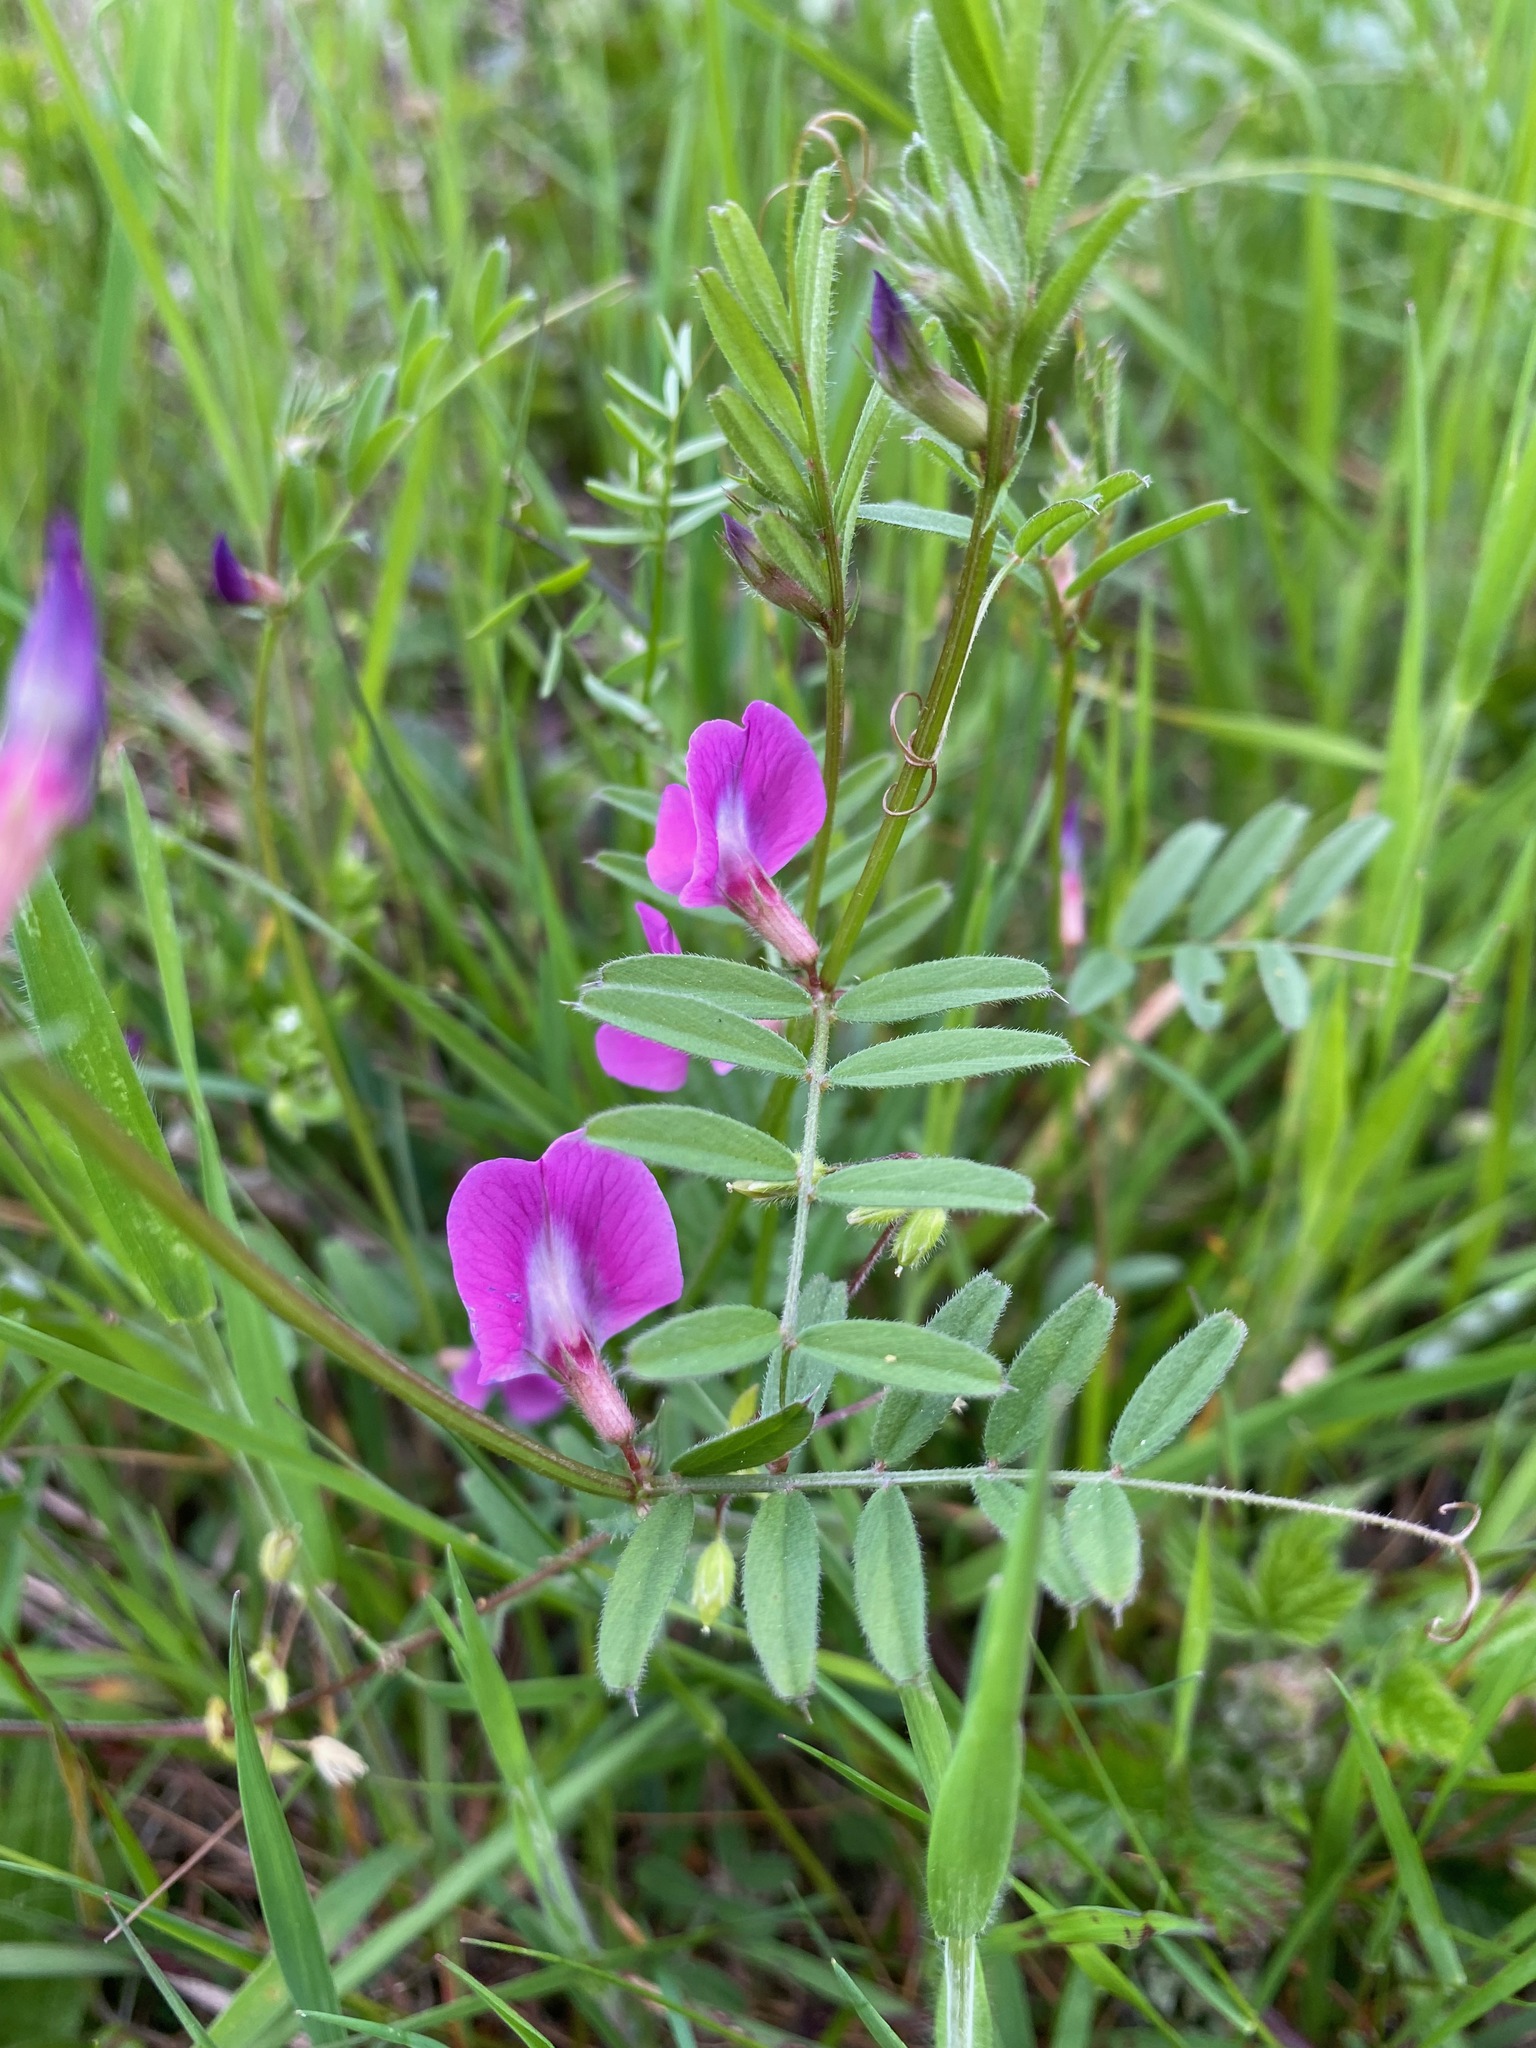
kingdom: Plantae
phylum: Tracheophyta
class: Magnoliopsida
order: Fabales
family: Fabaceae
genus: Vicia
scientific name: Vicia sativa
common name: Garden vetch
